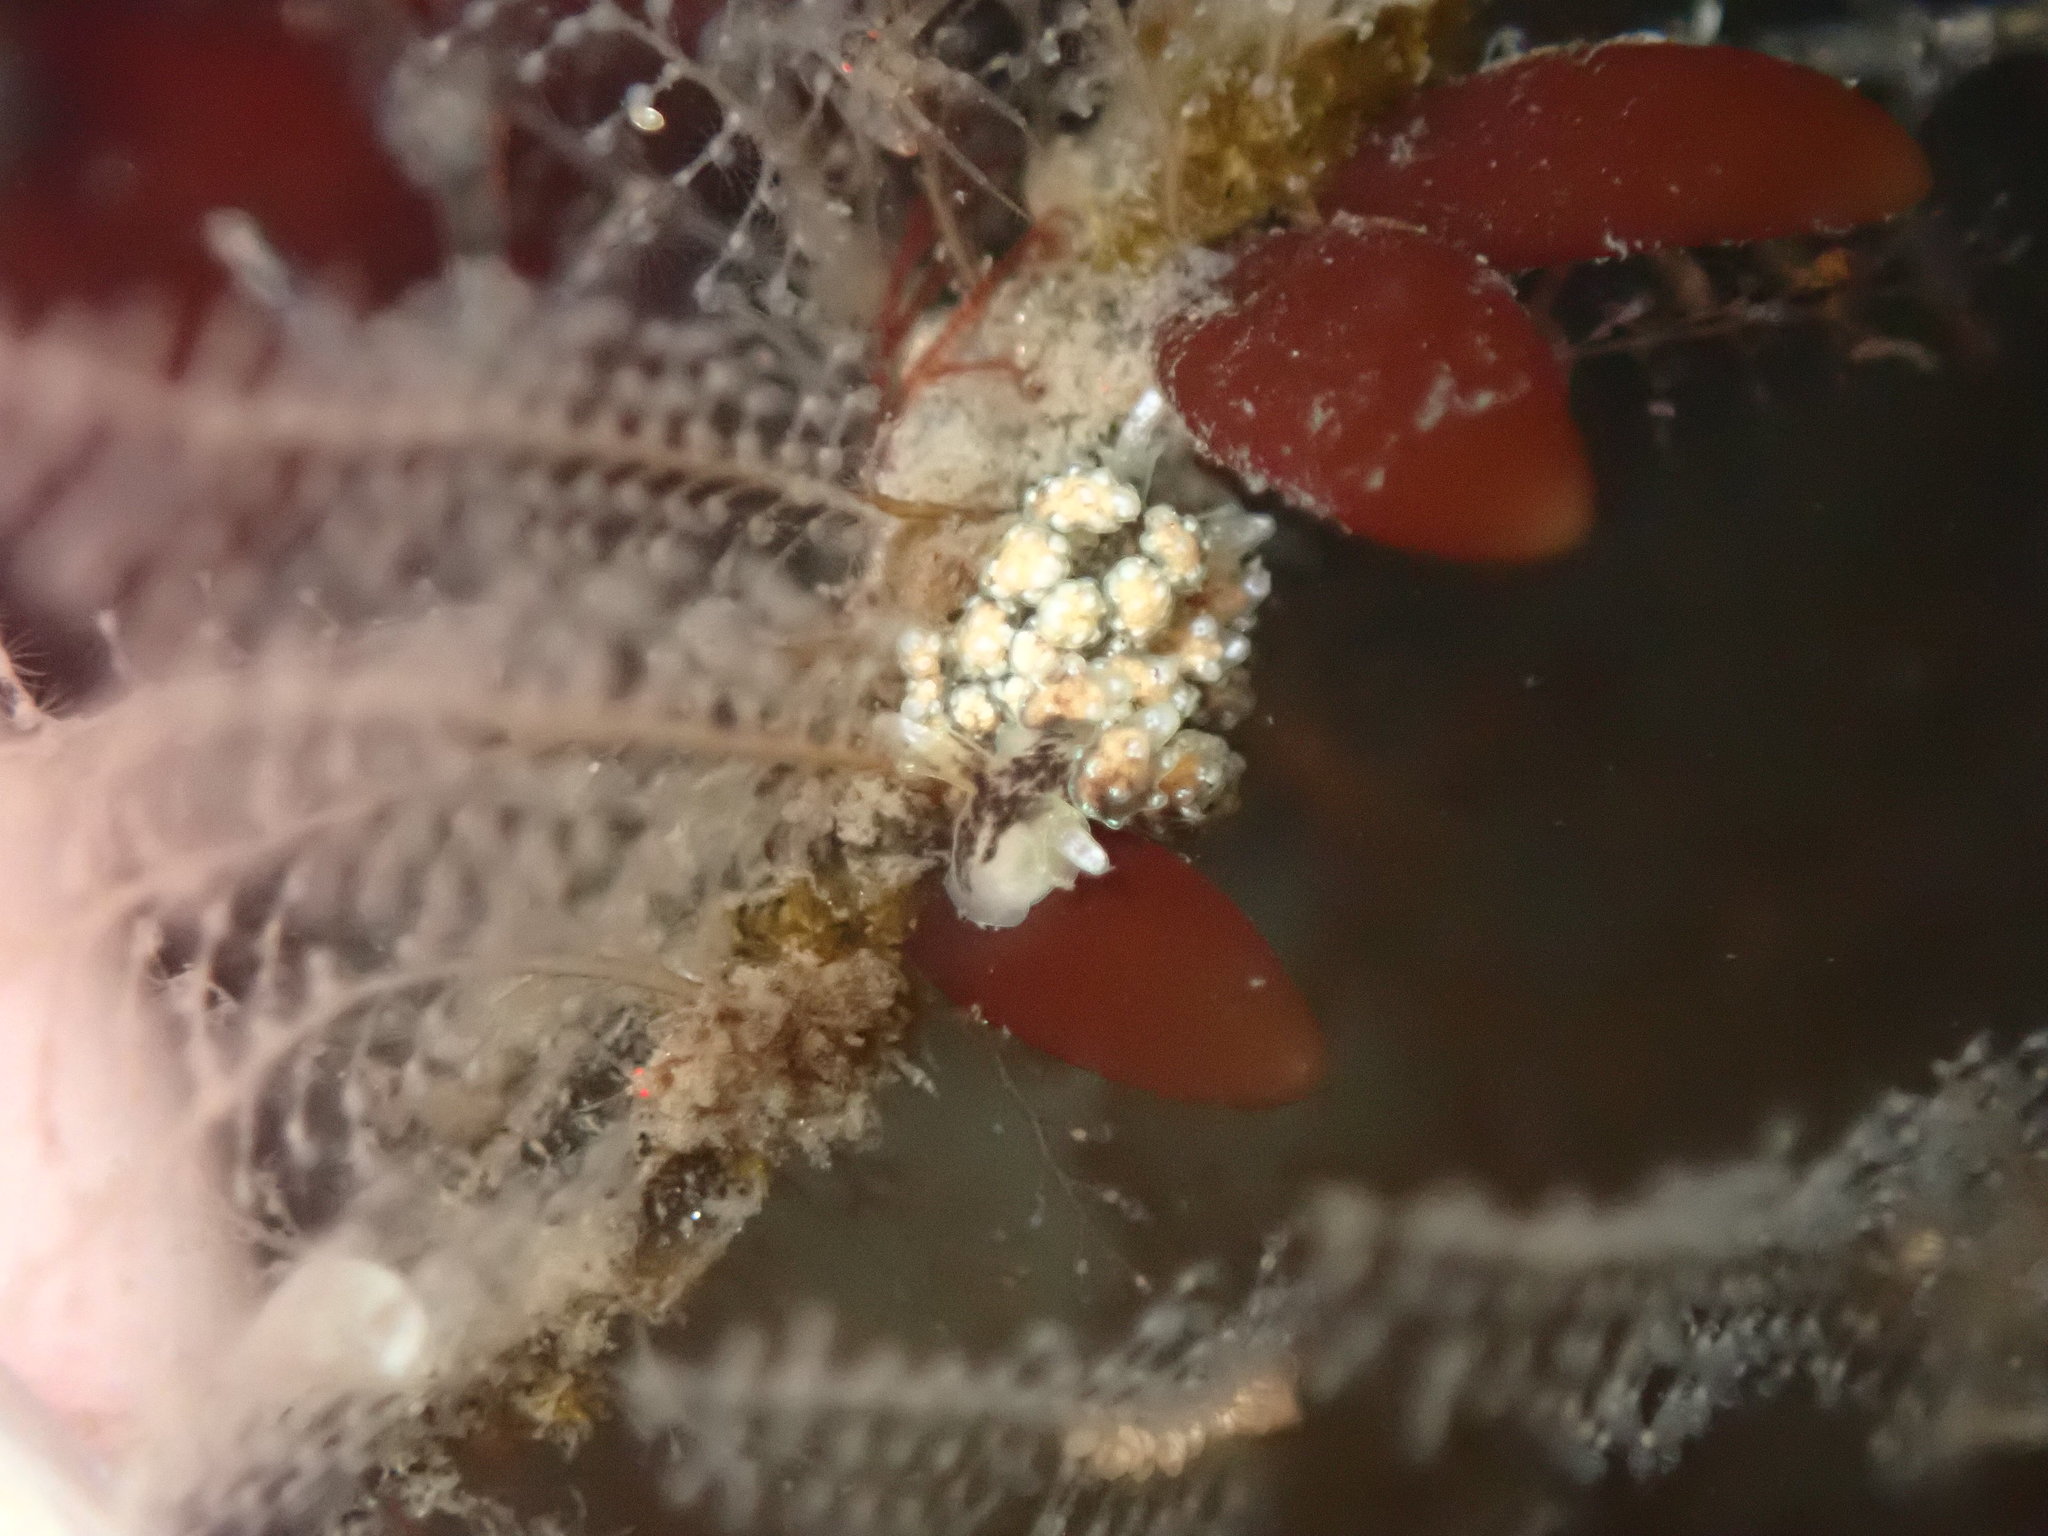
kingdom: Animalia
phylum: Mollusca
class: Gastropoda
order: Nudibranchia
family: Dotidae
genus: Doto
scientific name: Doto kya
